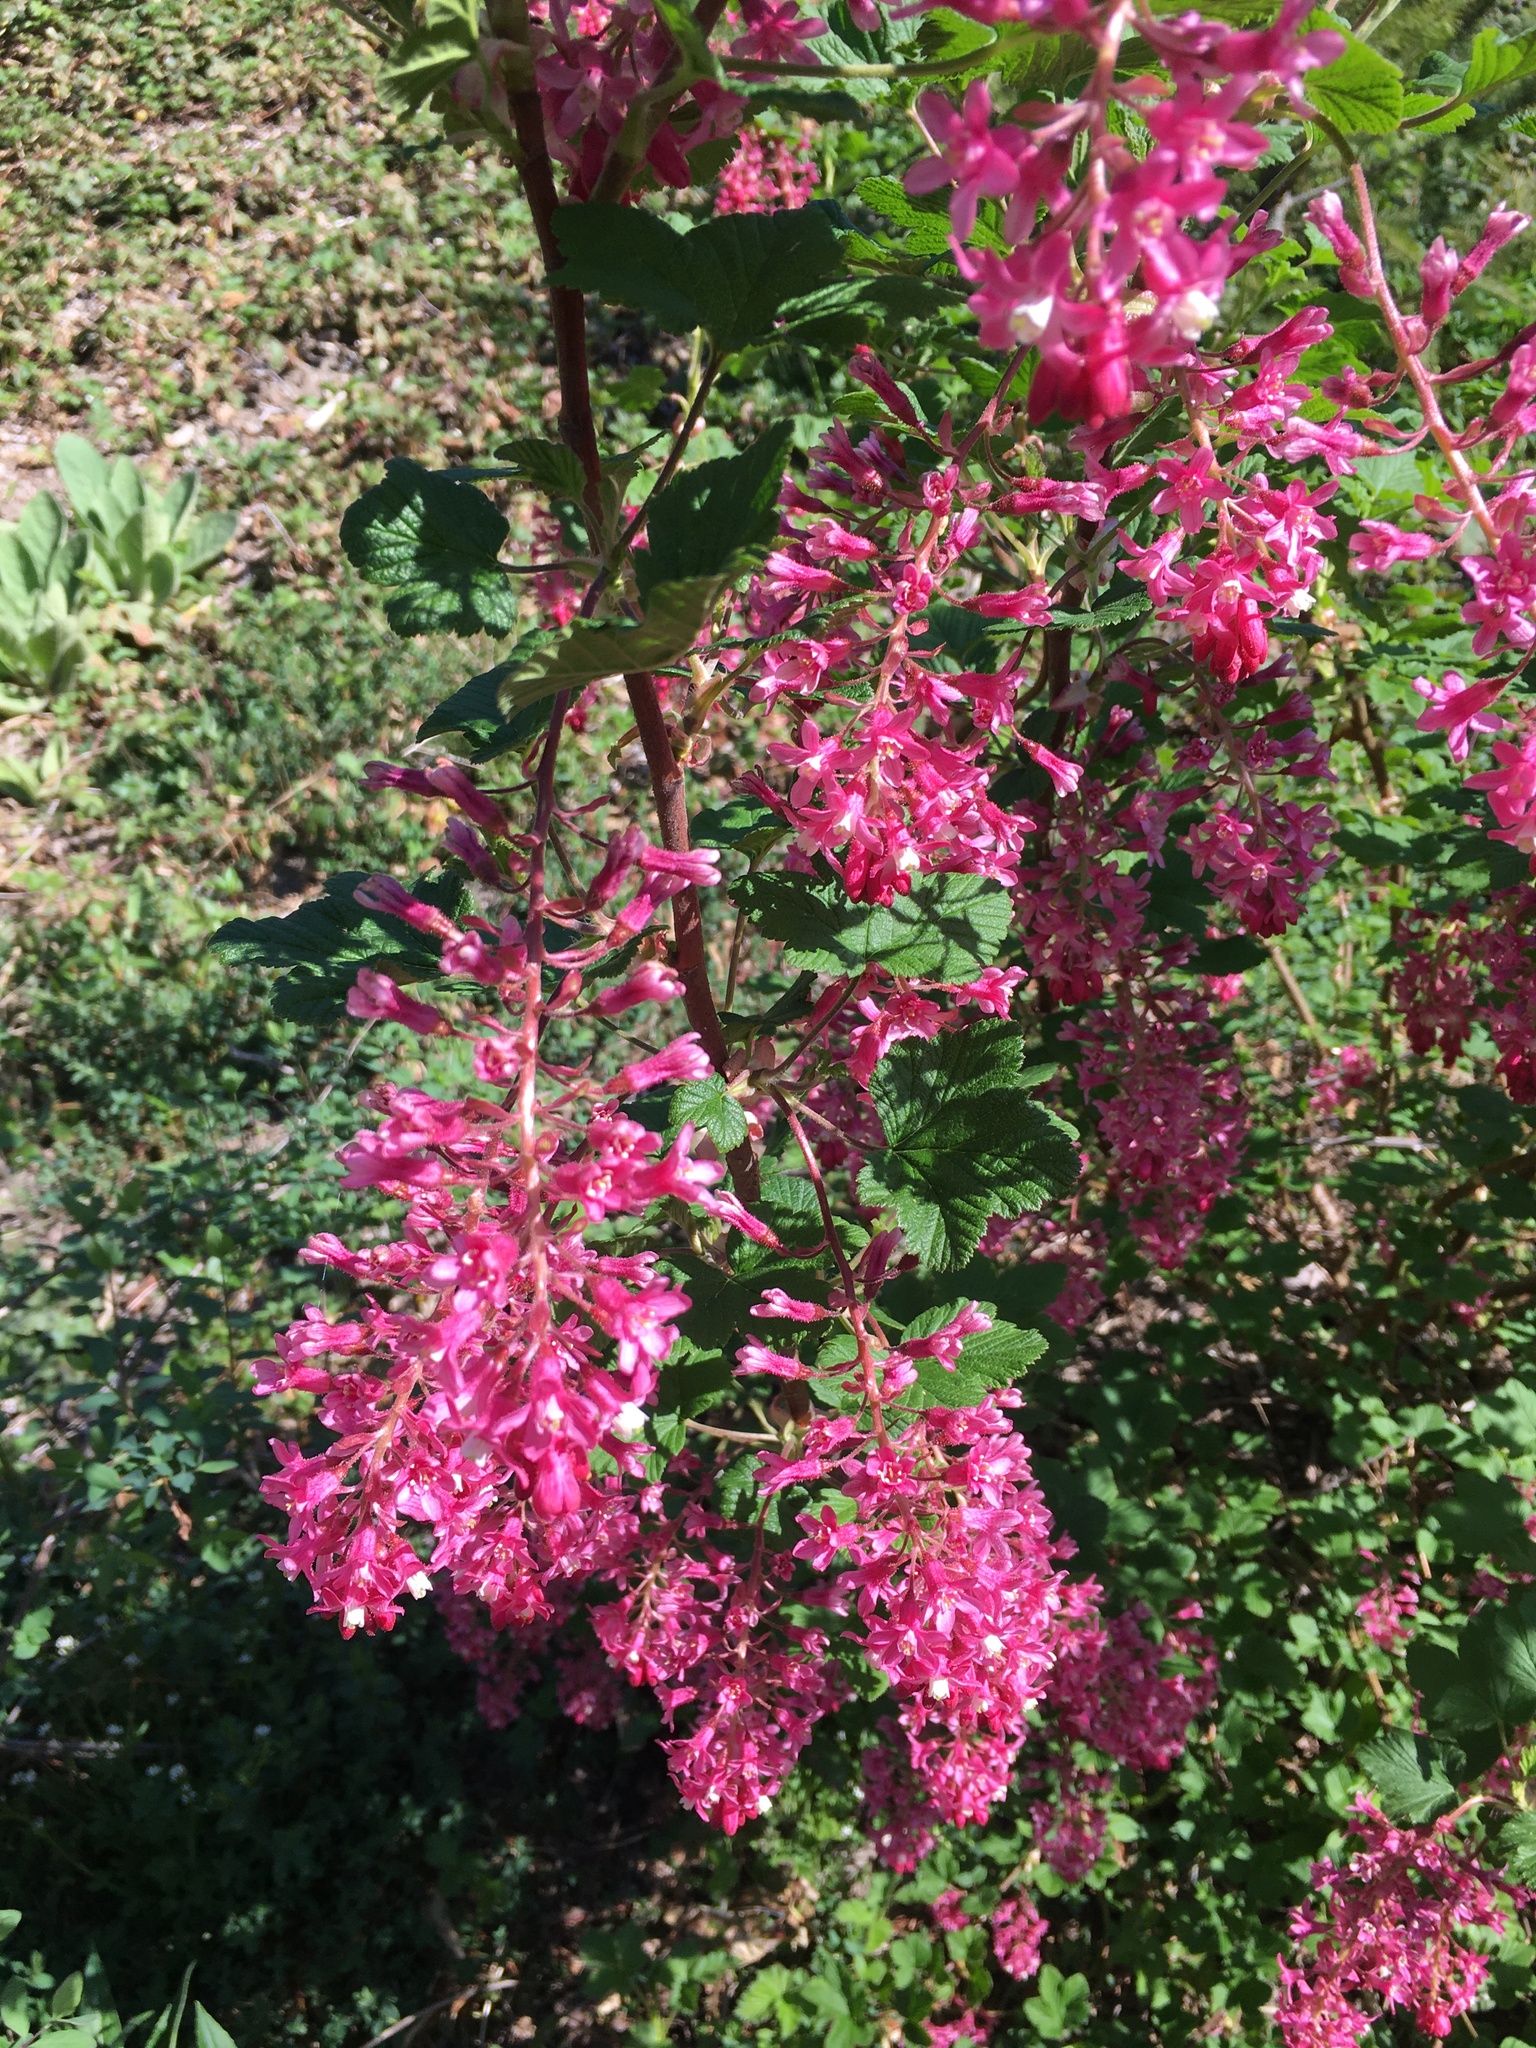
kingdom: Plantae
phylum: Tracheophyta
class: Magnoliopsida
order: Saxifragales
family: Grossulariaceae
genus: Ribes
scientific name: Ribes sanguineum
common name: Flowering currant
